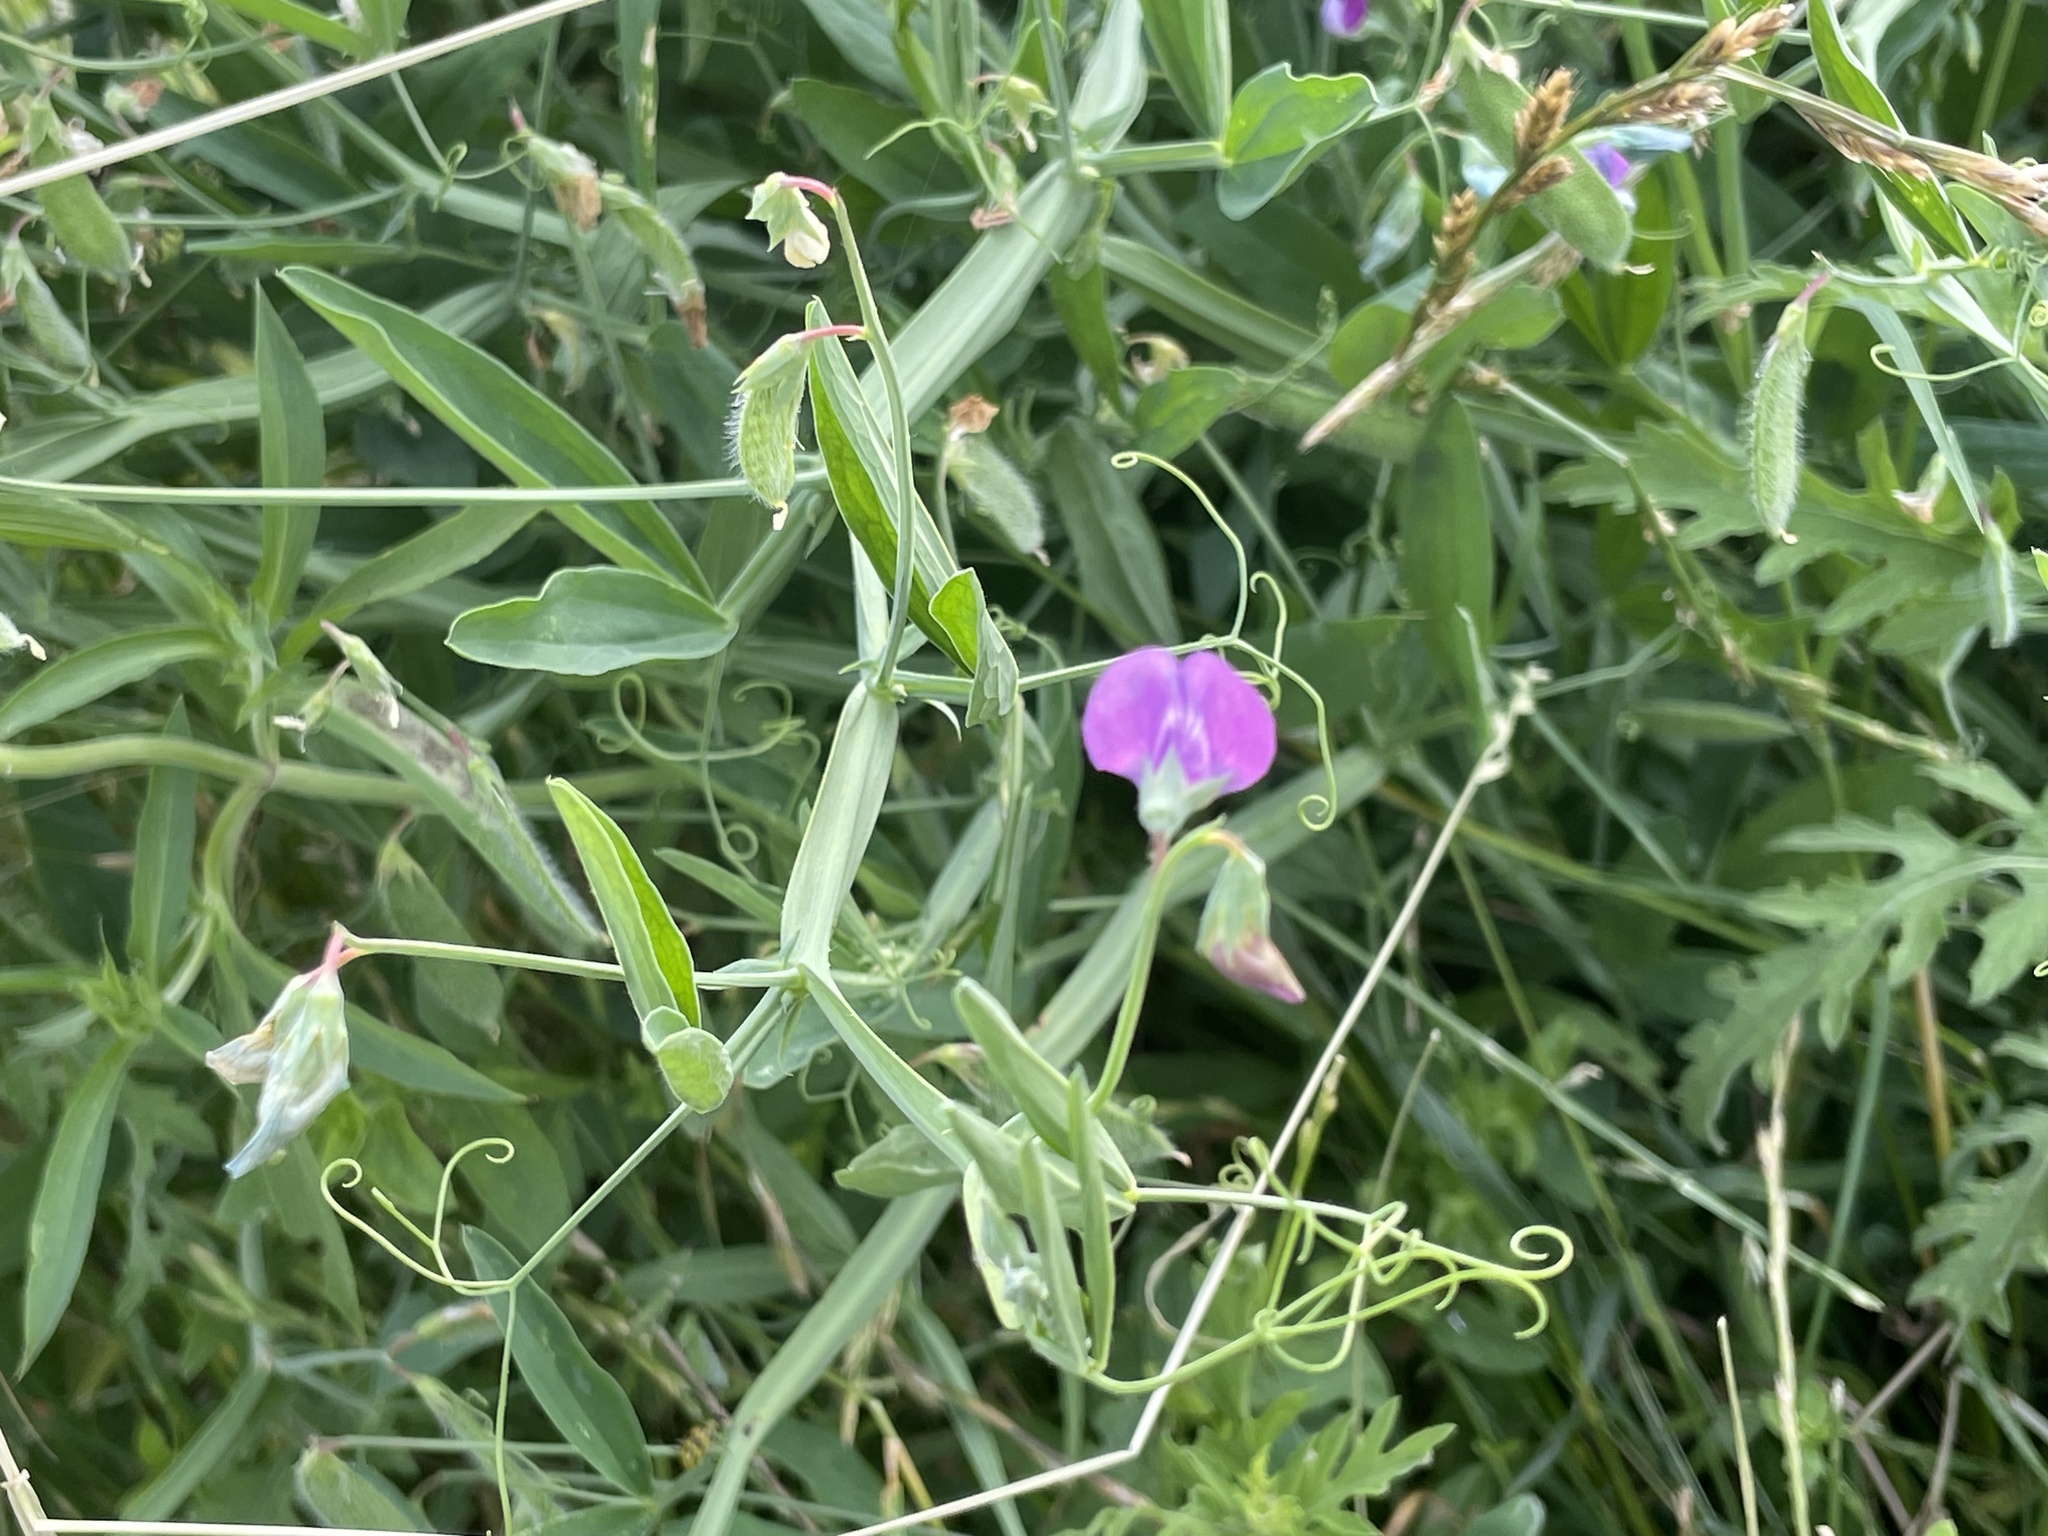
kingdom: Plantae
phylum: Tracheophyta
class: Magnoliopsida
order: Fabales
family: Fabaceae
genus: Lathyrus
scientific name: Lathyrus hirsutus
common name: Hairy vetchling
